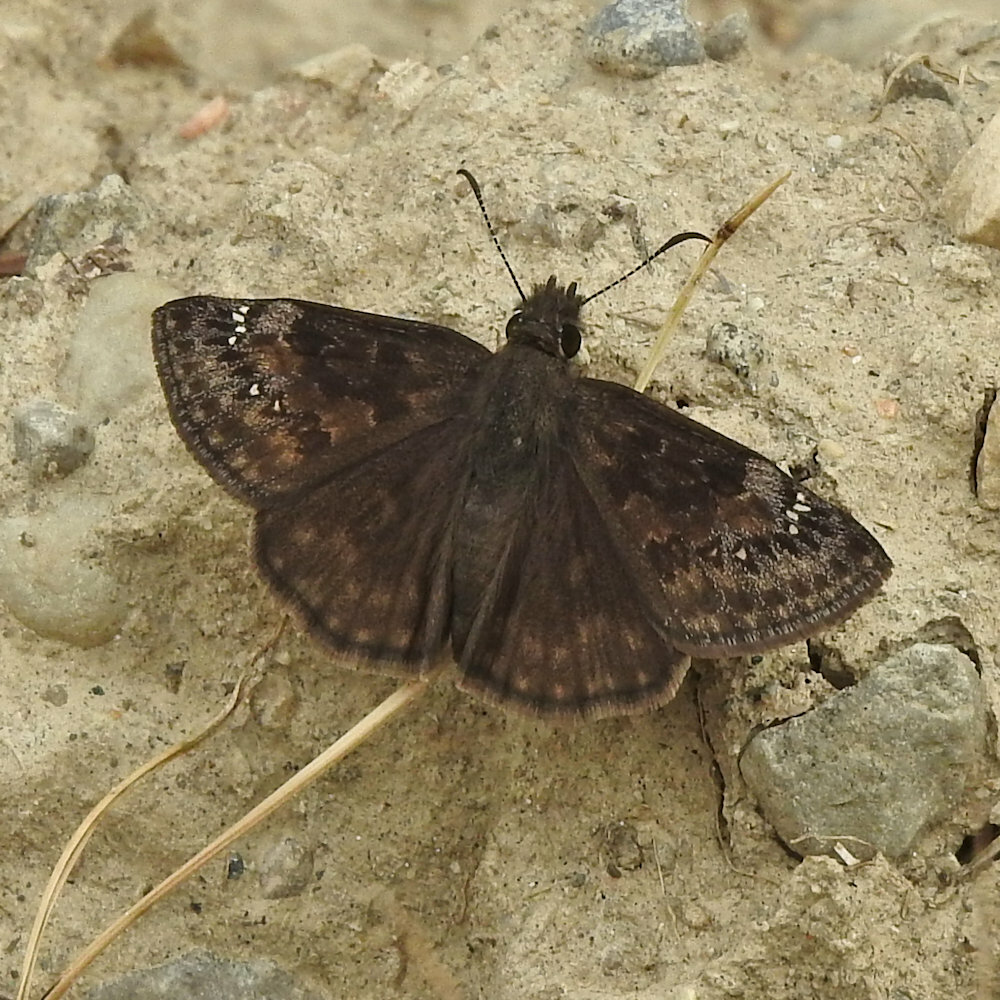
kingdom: Animalia
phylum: Arthropoda
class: Insecta
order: Lepidoptera
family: Hesperiidae
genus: Erynnis
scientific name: Erynnis baptisiae
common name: Wild indigo duskywing
